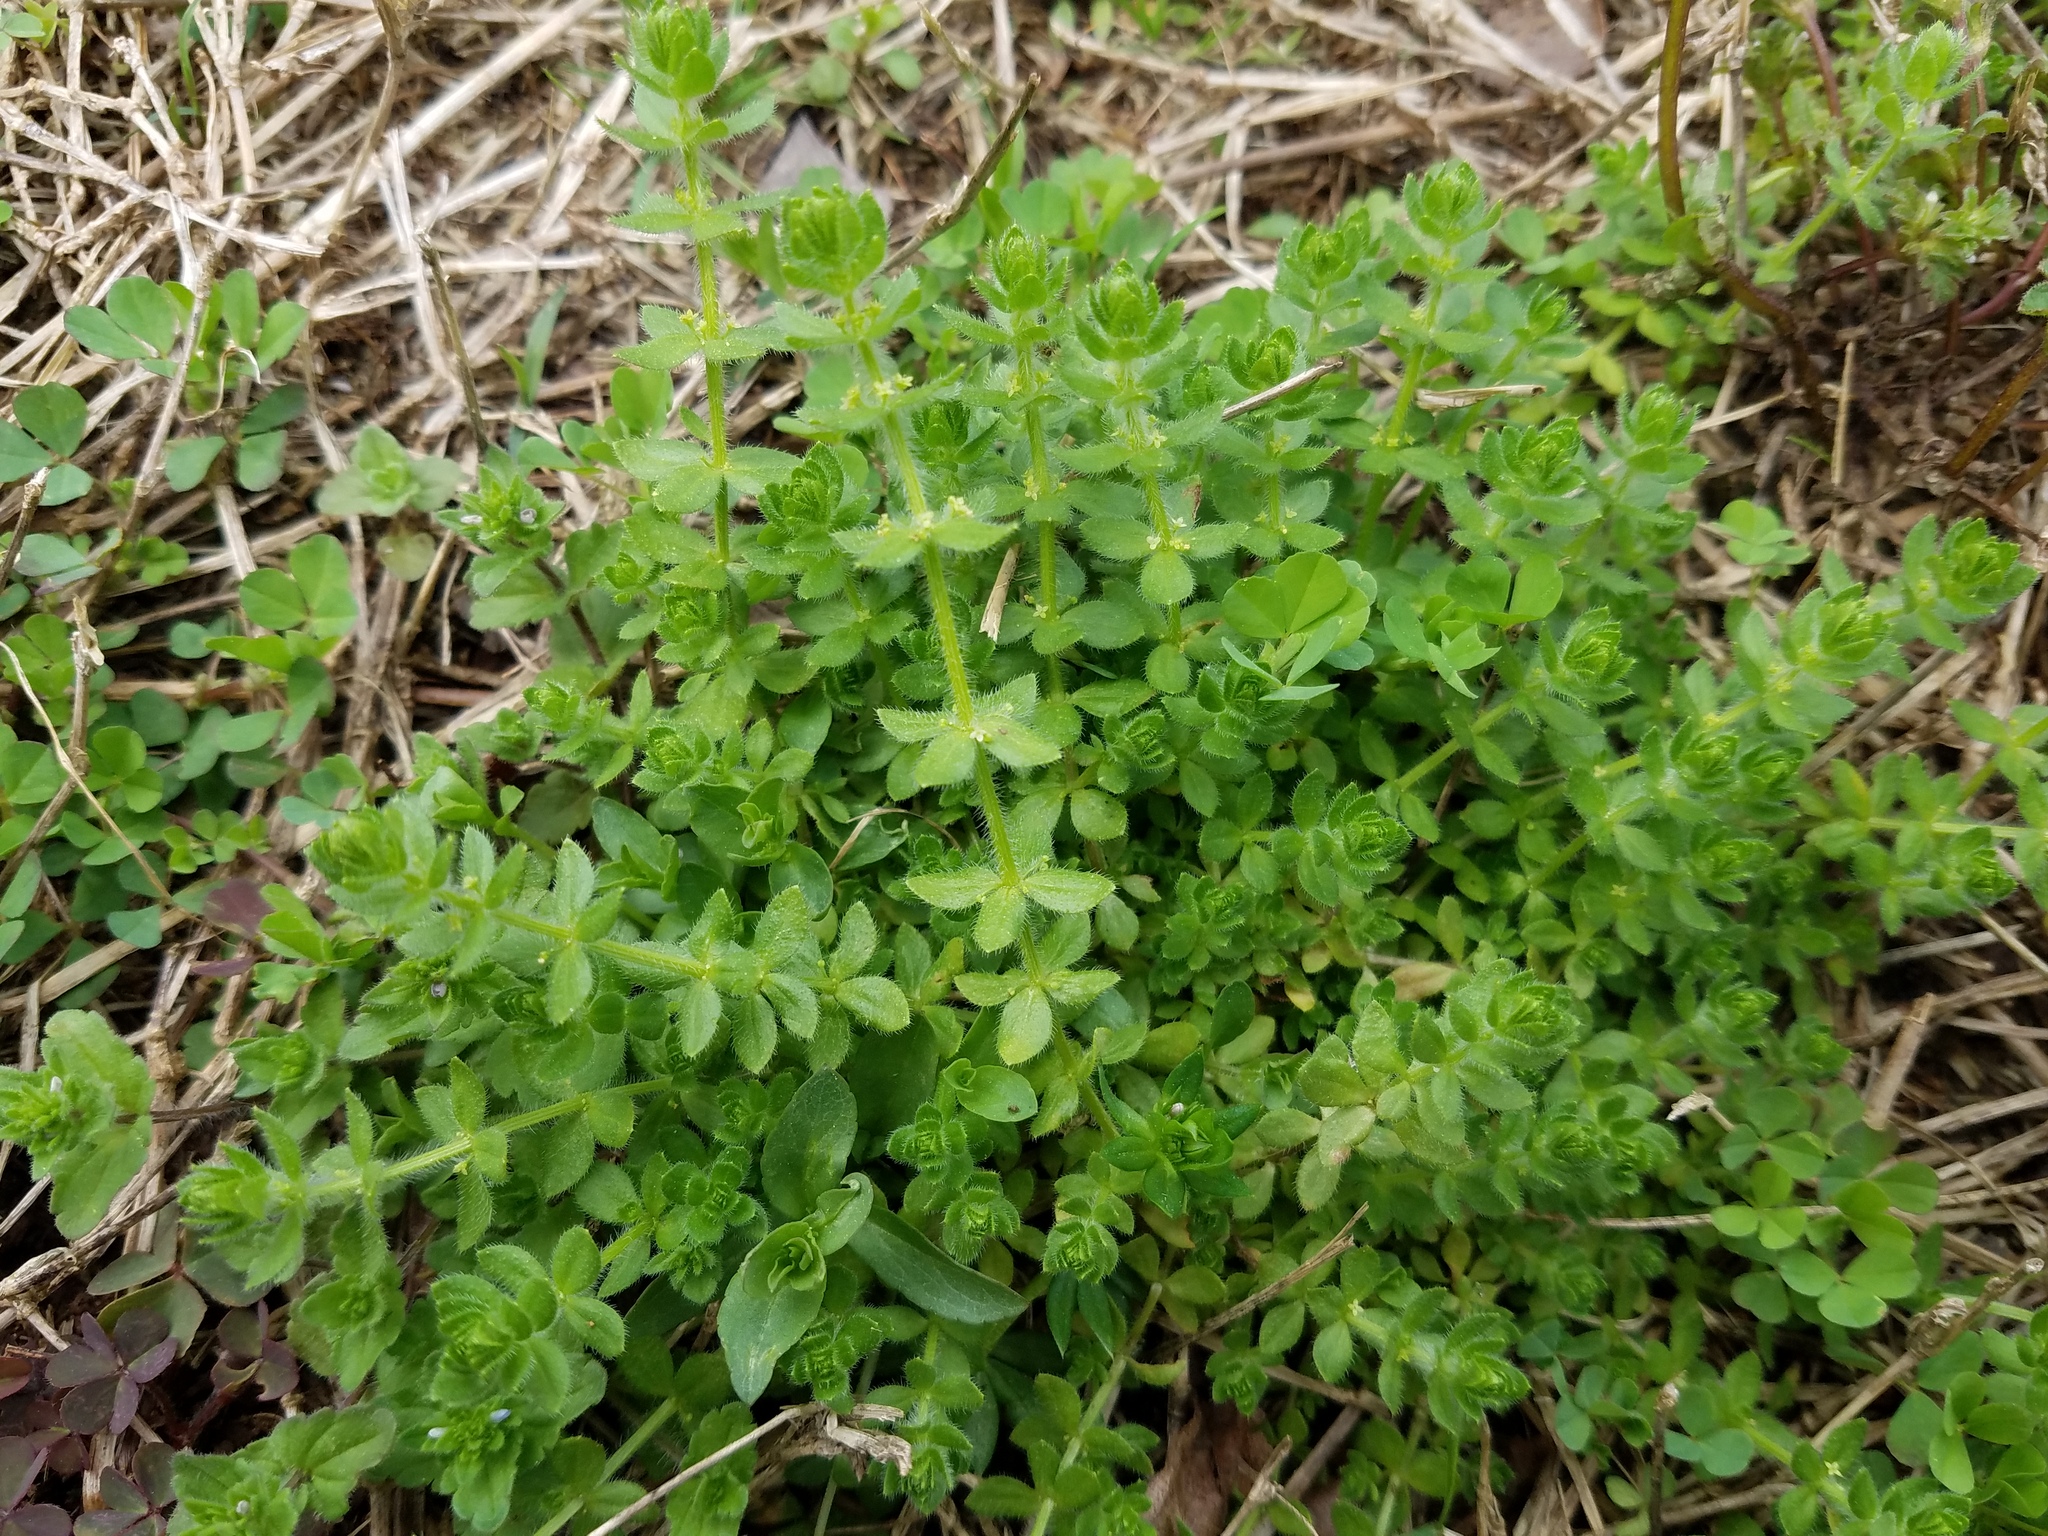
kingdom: Plantae
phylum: Tracheophyta
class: Magnoliopsida
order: Gentianales
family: Rubiaceae
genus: Cruciata
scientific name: Cruciata pedemontana
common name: Piedmont bedstraw
